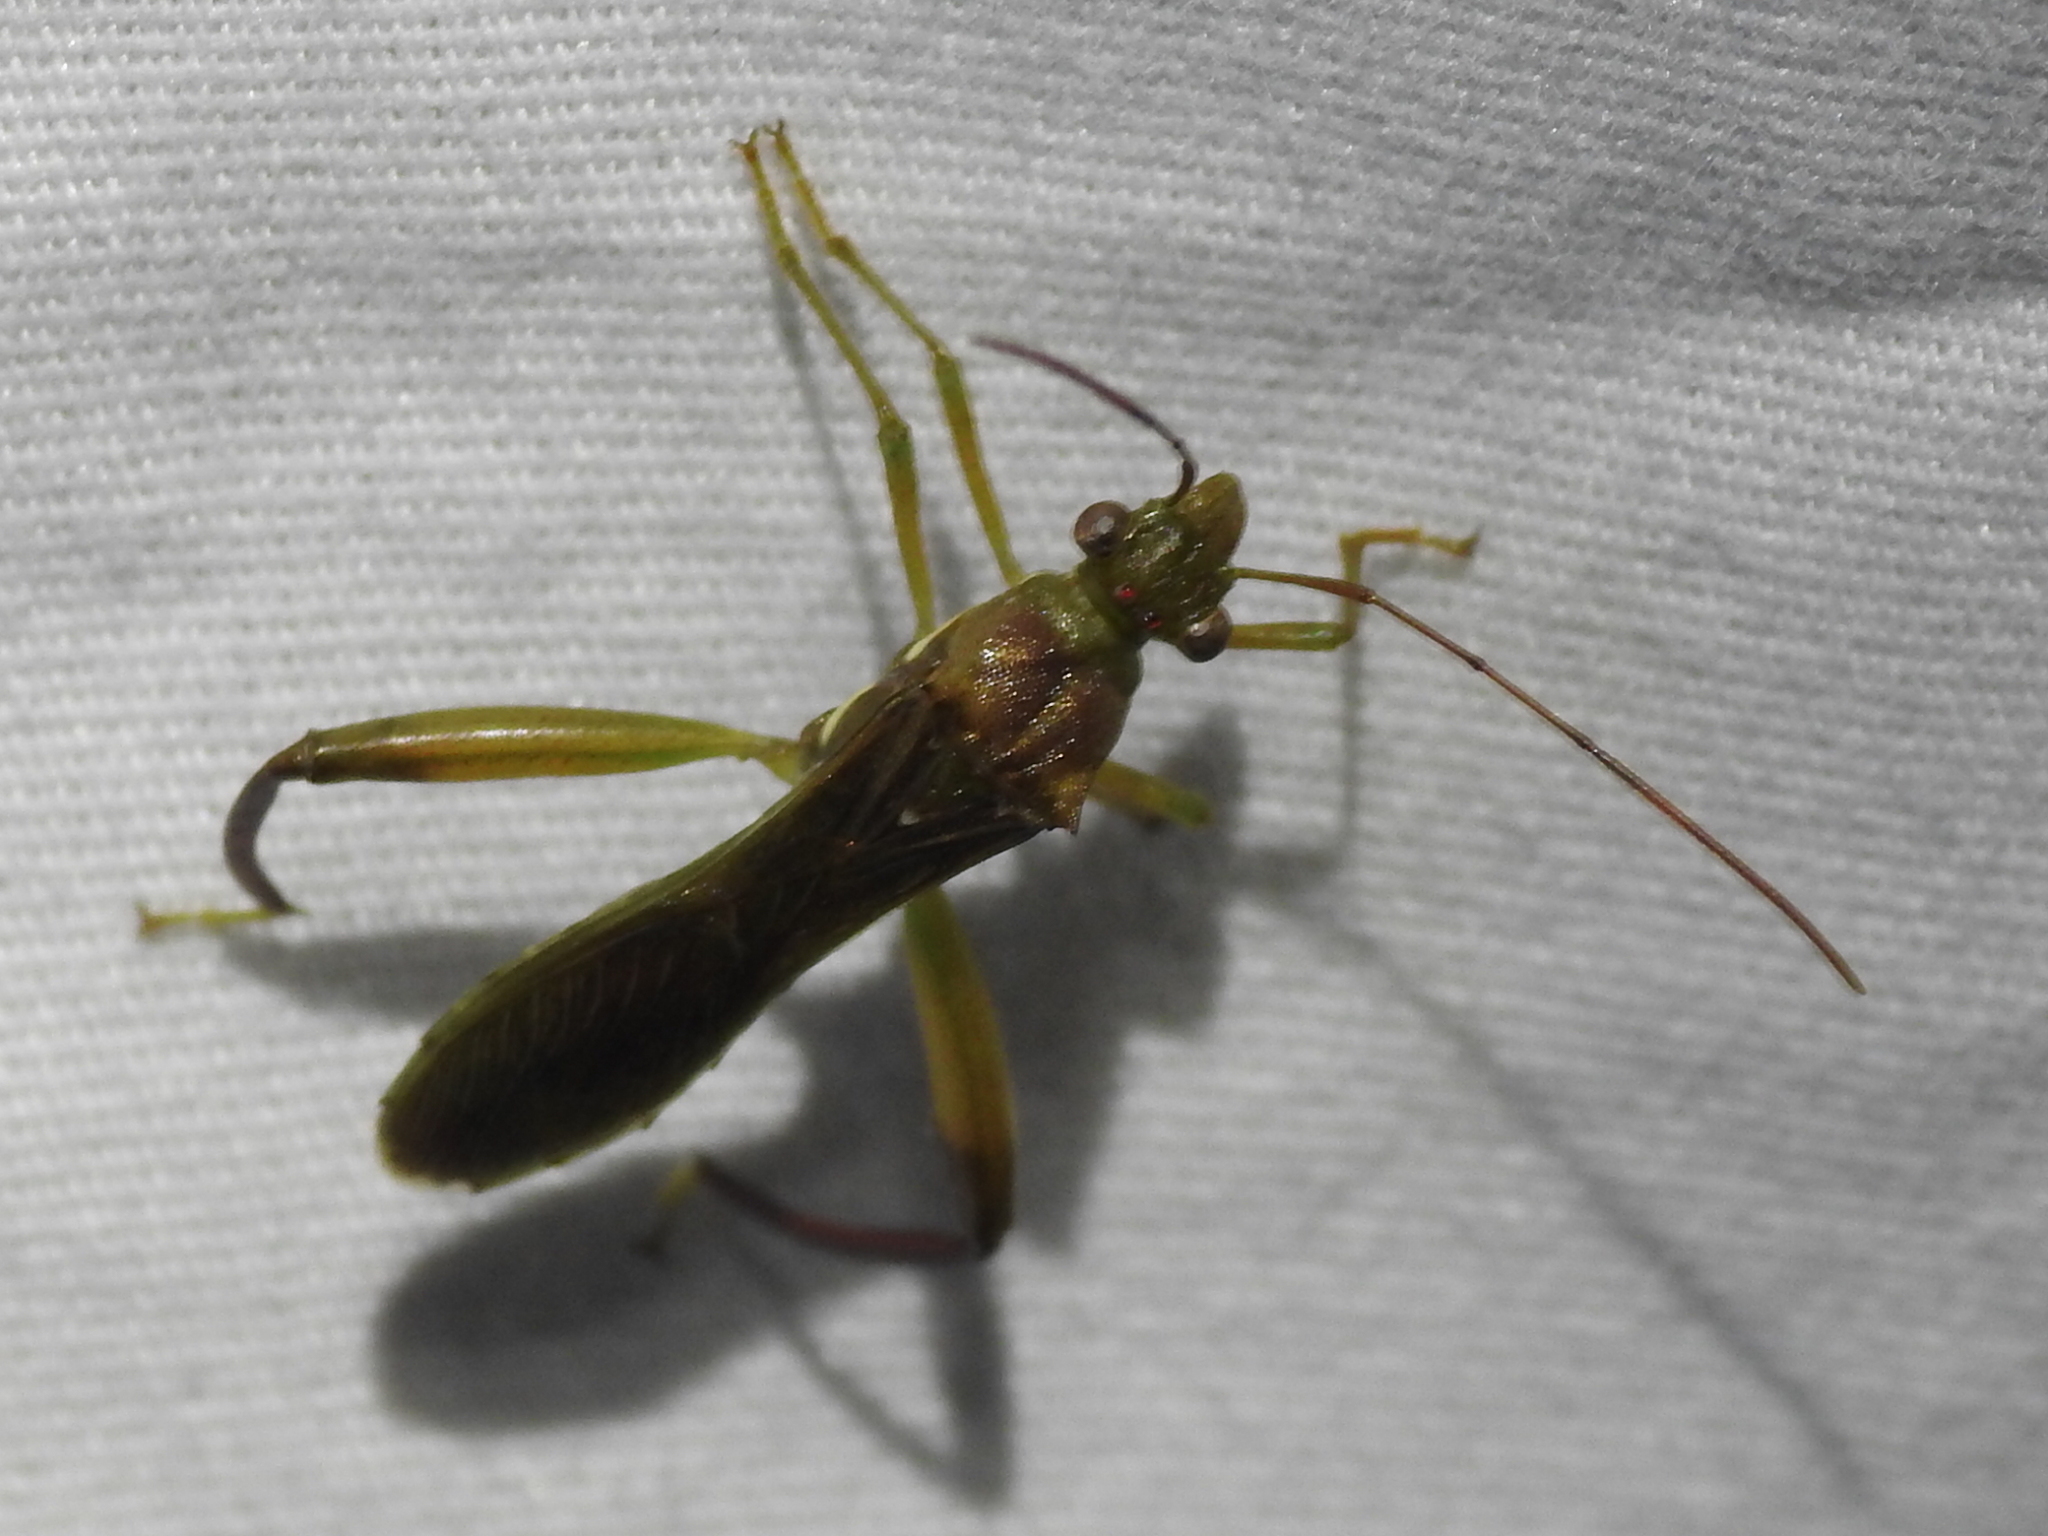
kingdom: Animalia
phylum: Arthropoda
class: Insecta
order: Hemiptera
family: Alydidae
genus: Hyalymenus
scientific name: Hyalymenus tarsatus
